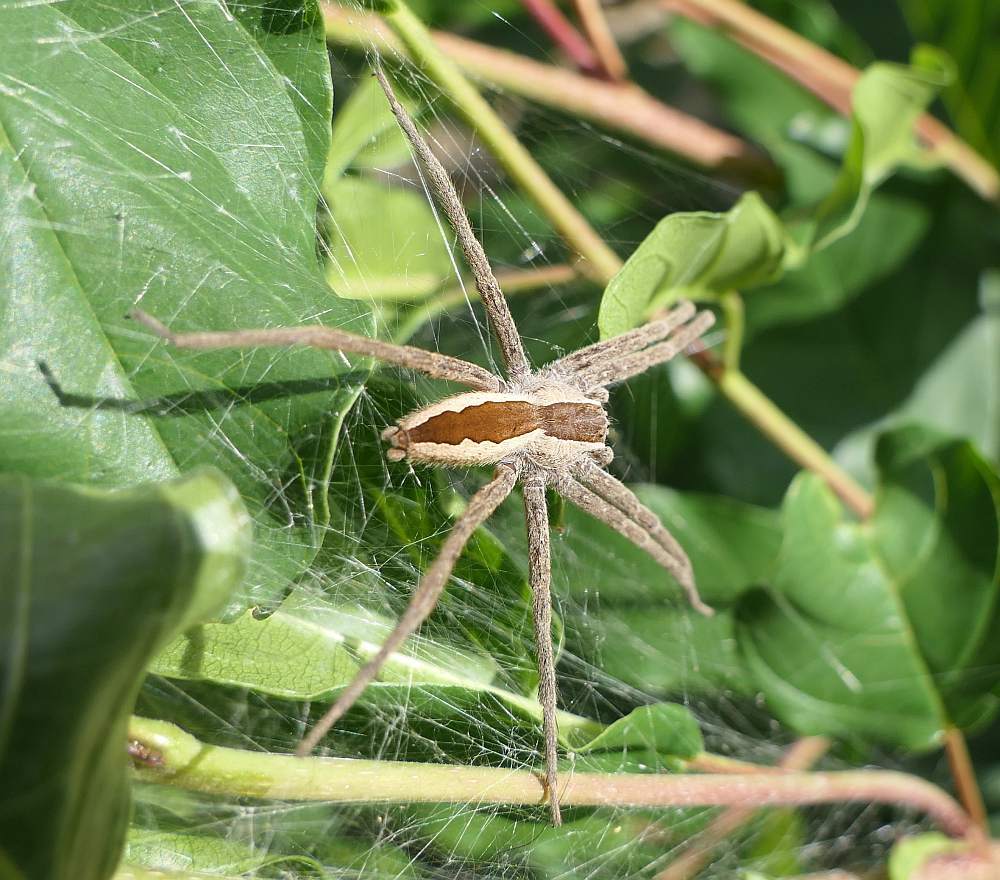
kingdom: Animalia
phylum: Arthropoda
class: Arachnida
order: Araneae
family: Pisauridae
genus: Pisaurina
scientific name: Pisaurina mira
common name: American nursery web spider
